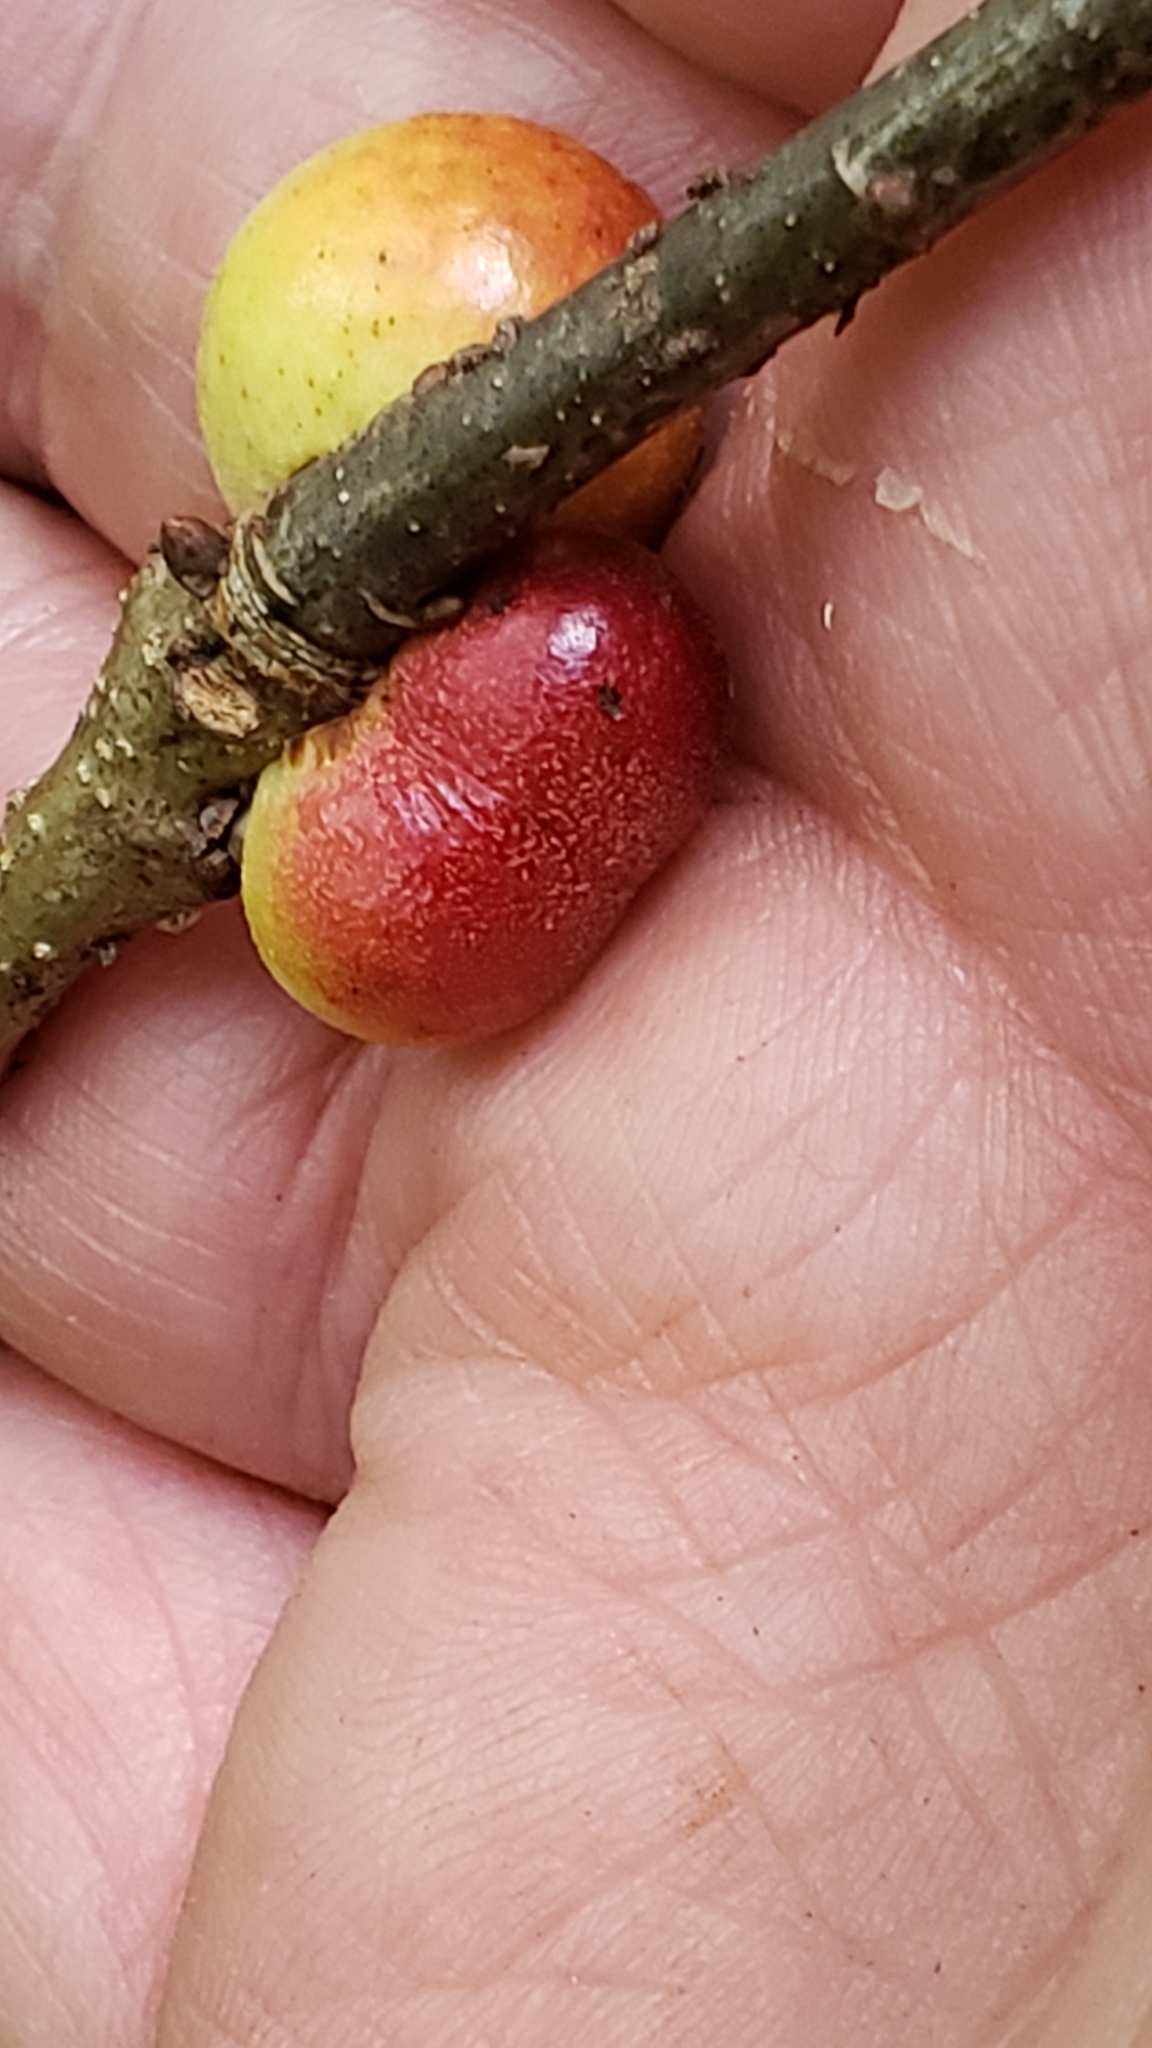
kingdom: Animalia
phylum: Arthropoda
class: Insecta
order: Hymenoptera
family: Cynipidae
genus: Disholcaspis
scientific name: Disholcaspis quercusglobulus
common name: Round bullet gall wasp
